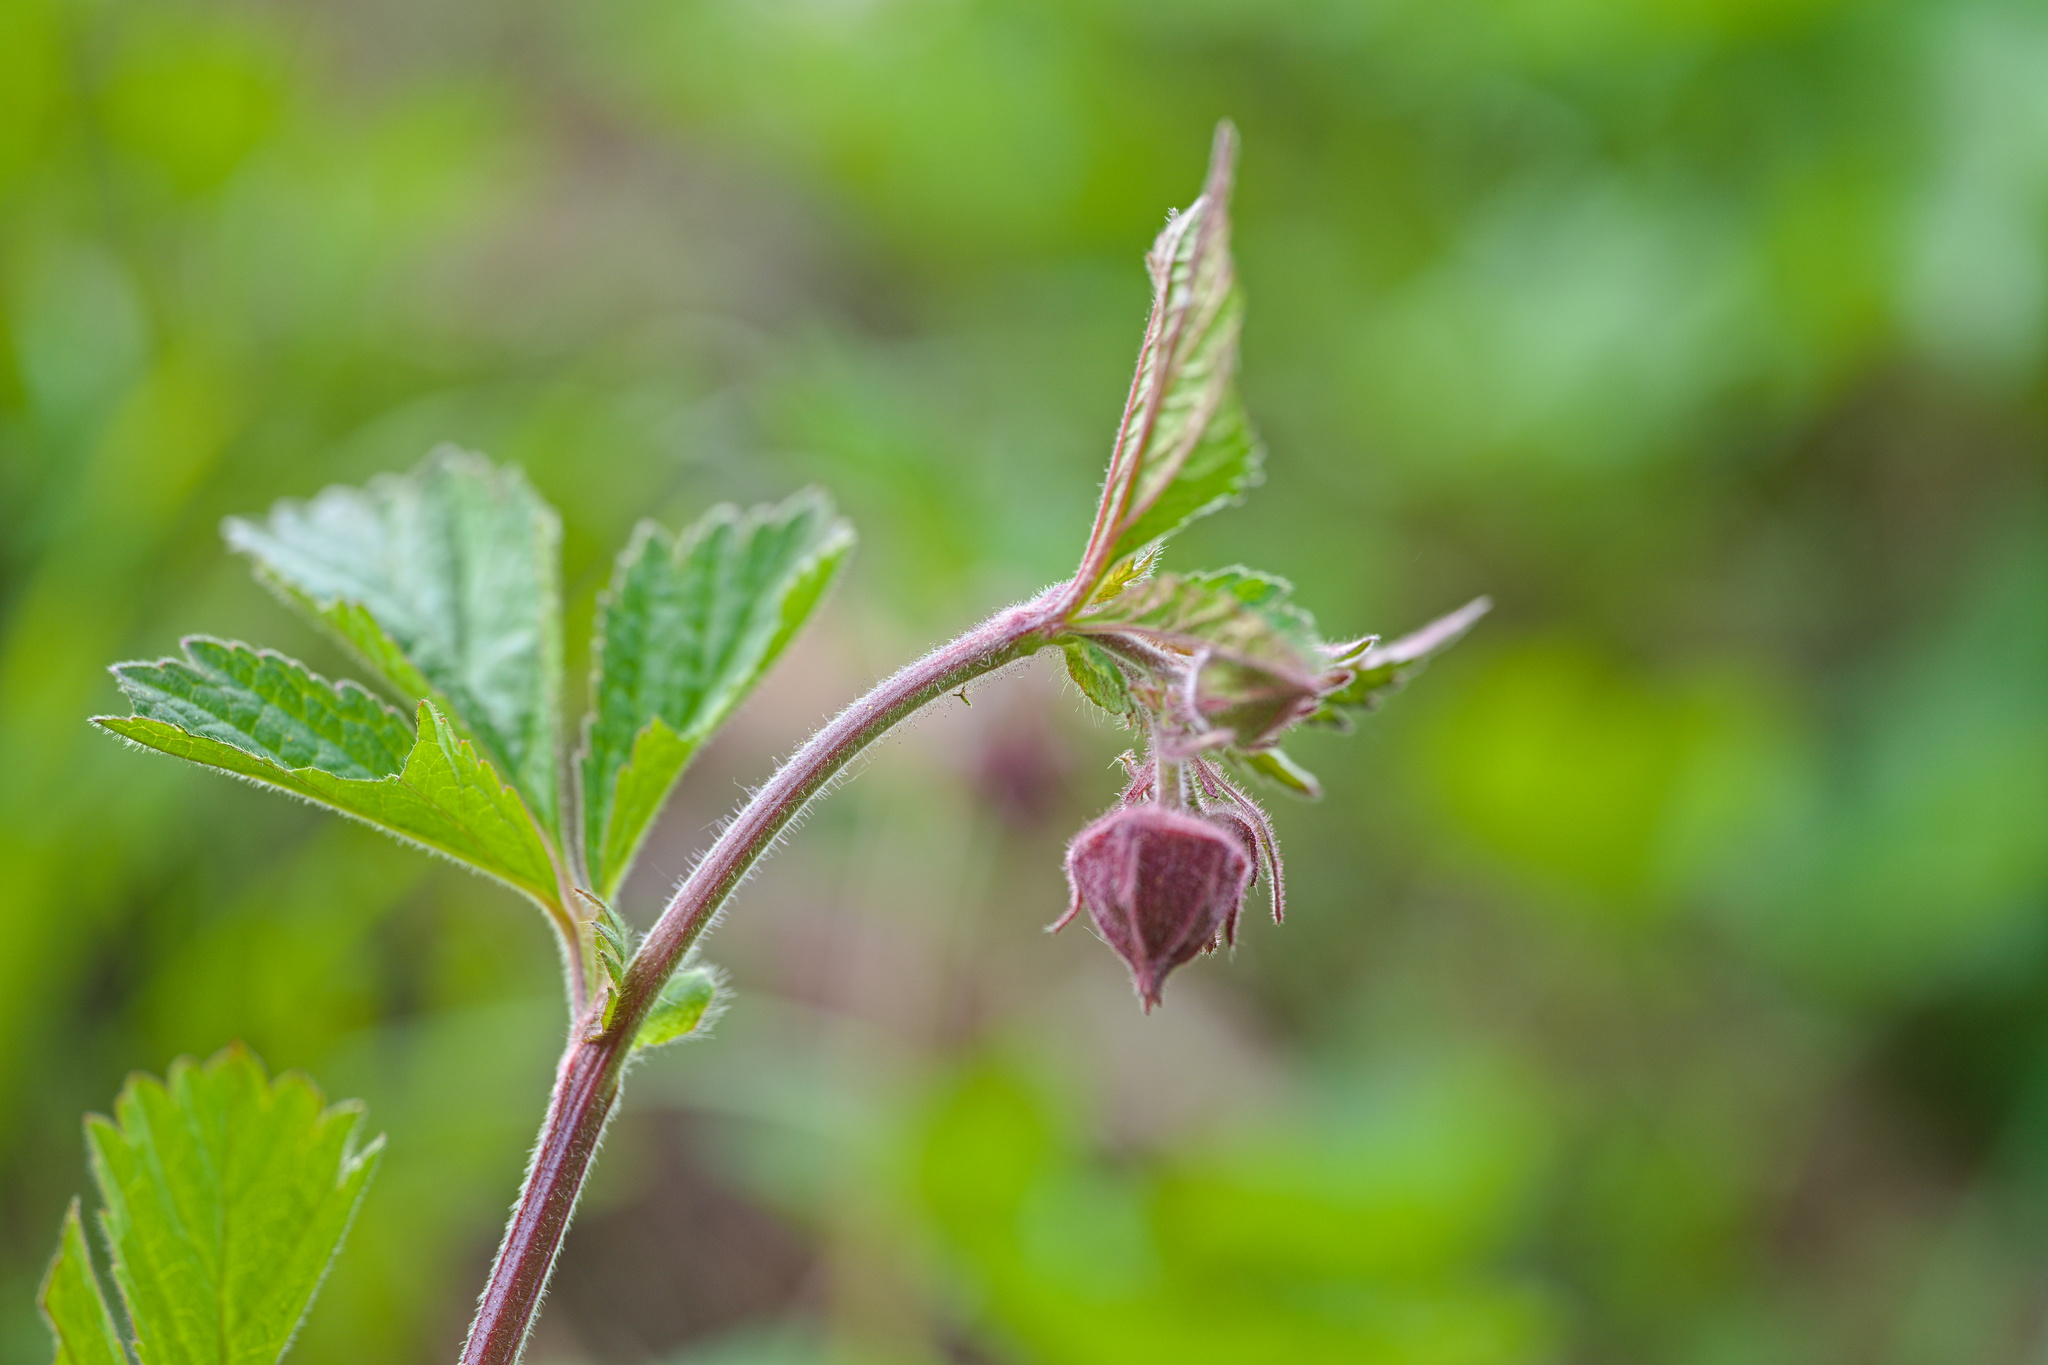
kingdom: Plantae
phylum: Tracheophyta
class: Magnoliopsida
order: Rosales
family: Rosaceae
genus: Geum
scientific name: Geum rivale
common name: Water avens
